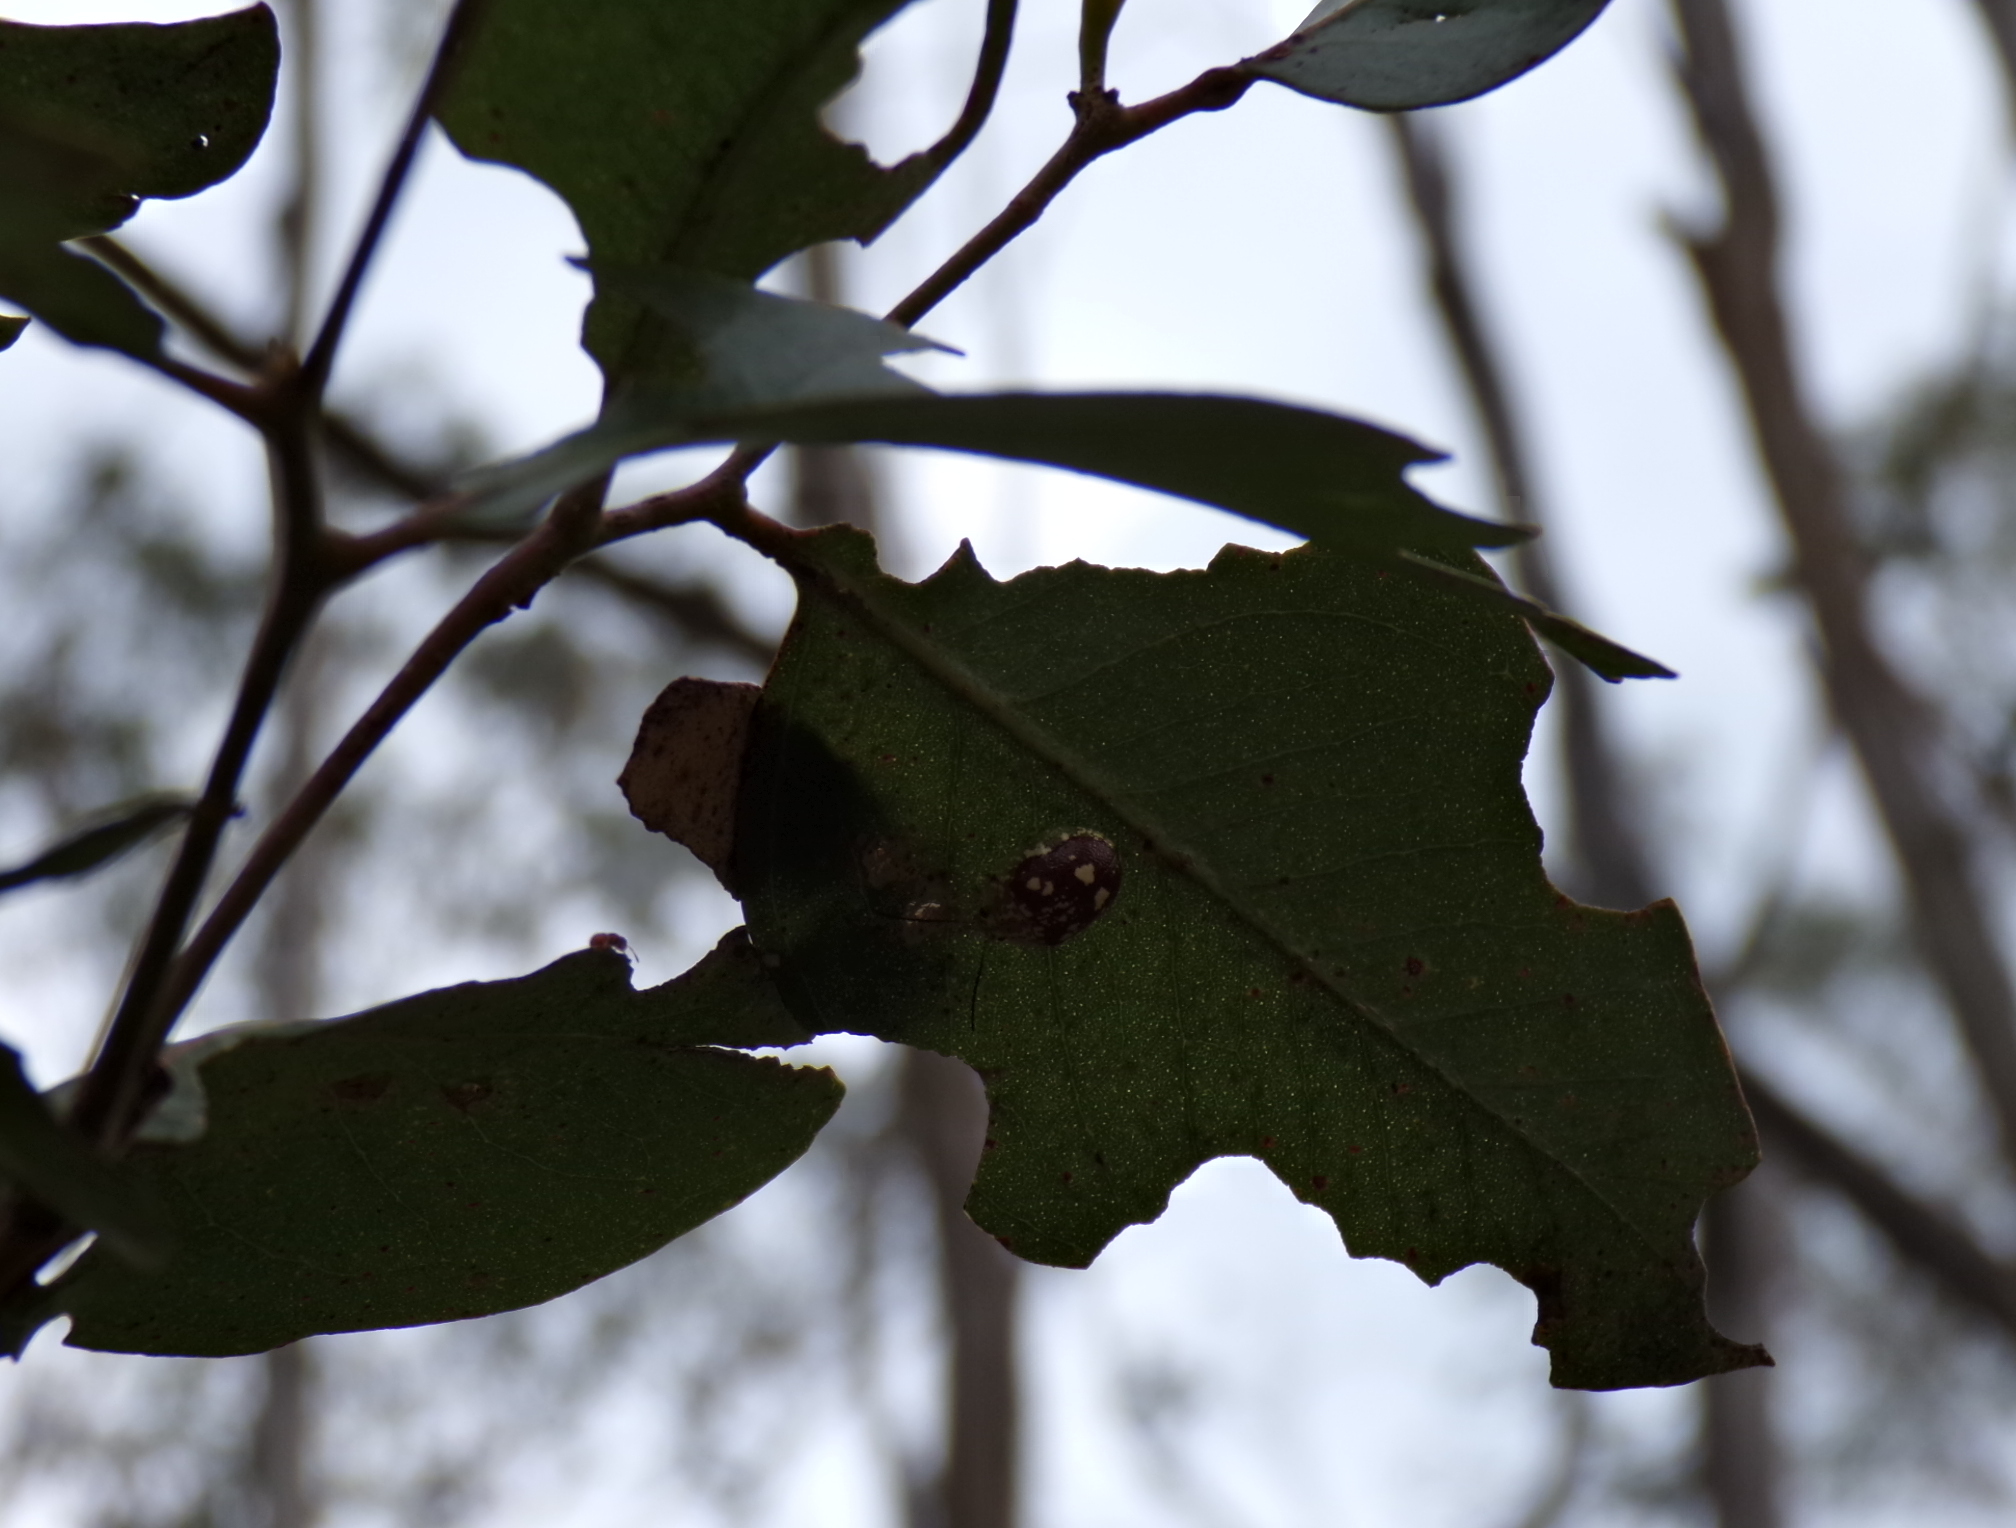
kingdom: Animalia
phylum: Arthropoda
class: Insecta
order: Coleoptera
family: Chrysomelidae
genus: Paropsis
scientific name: Paropsis maculata
